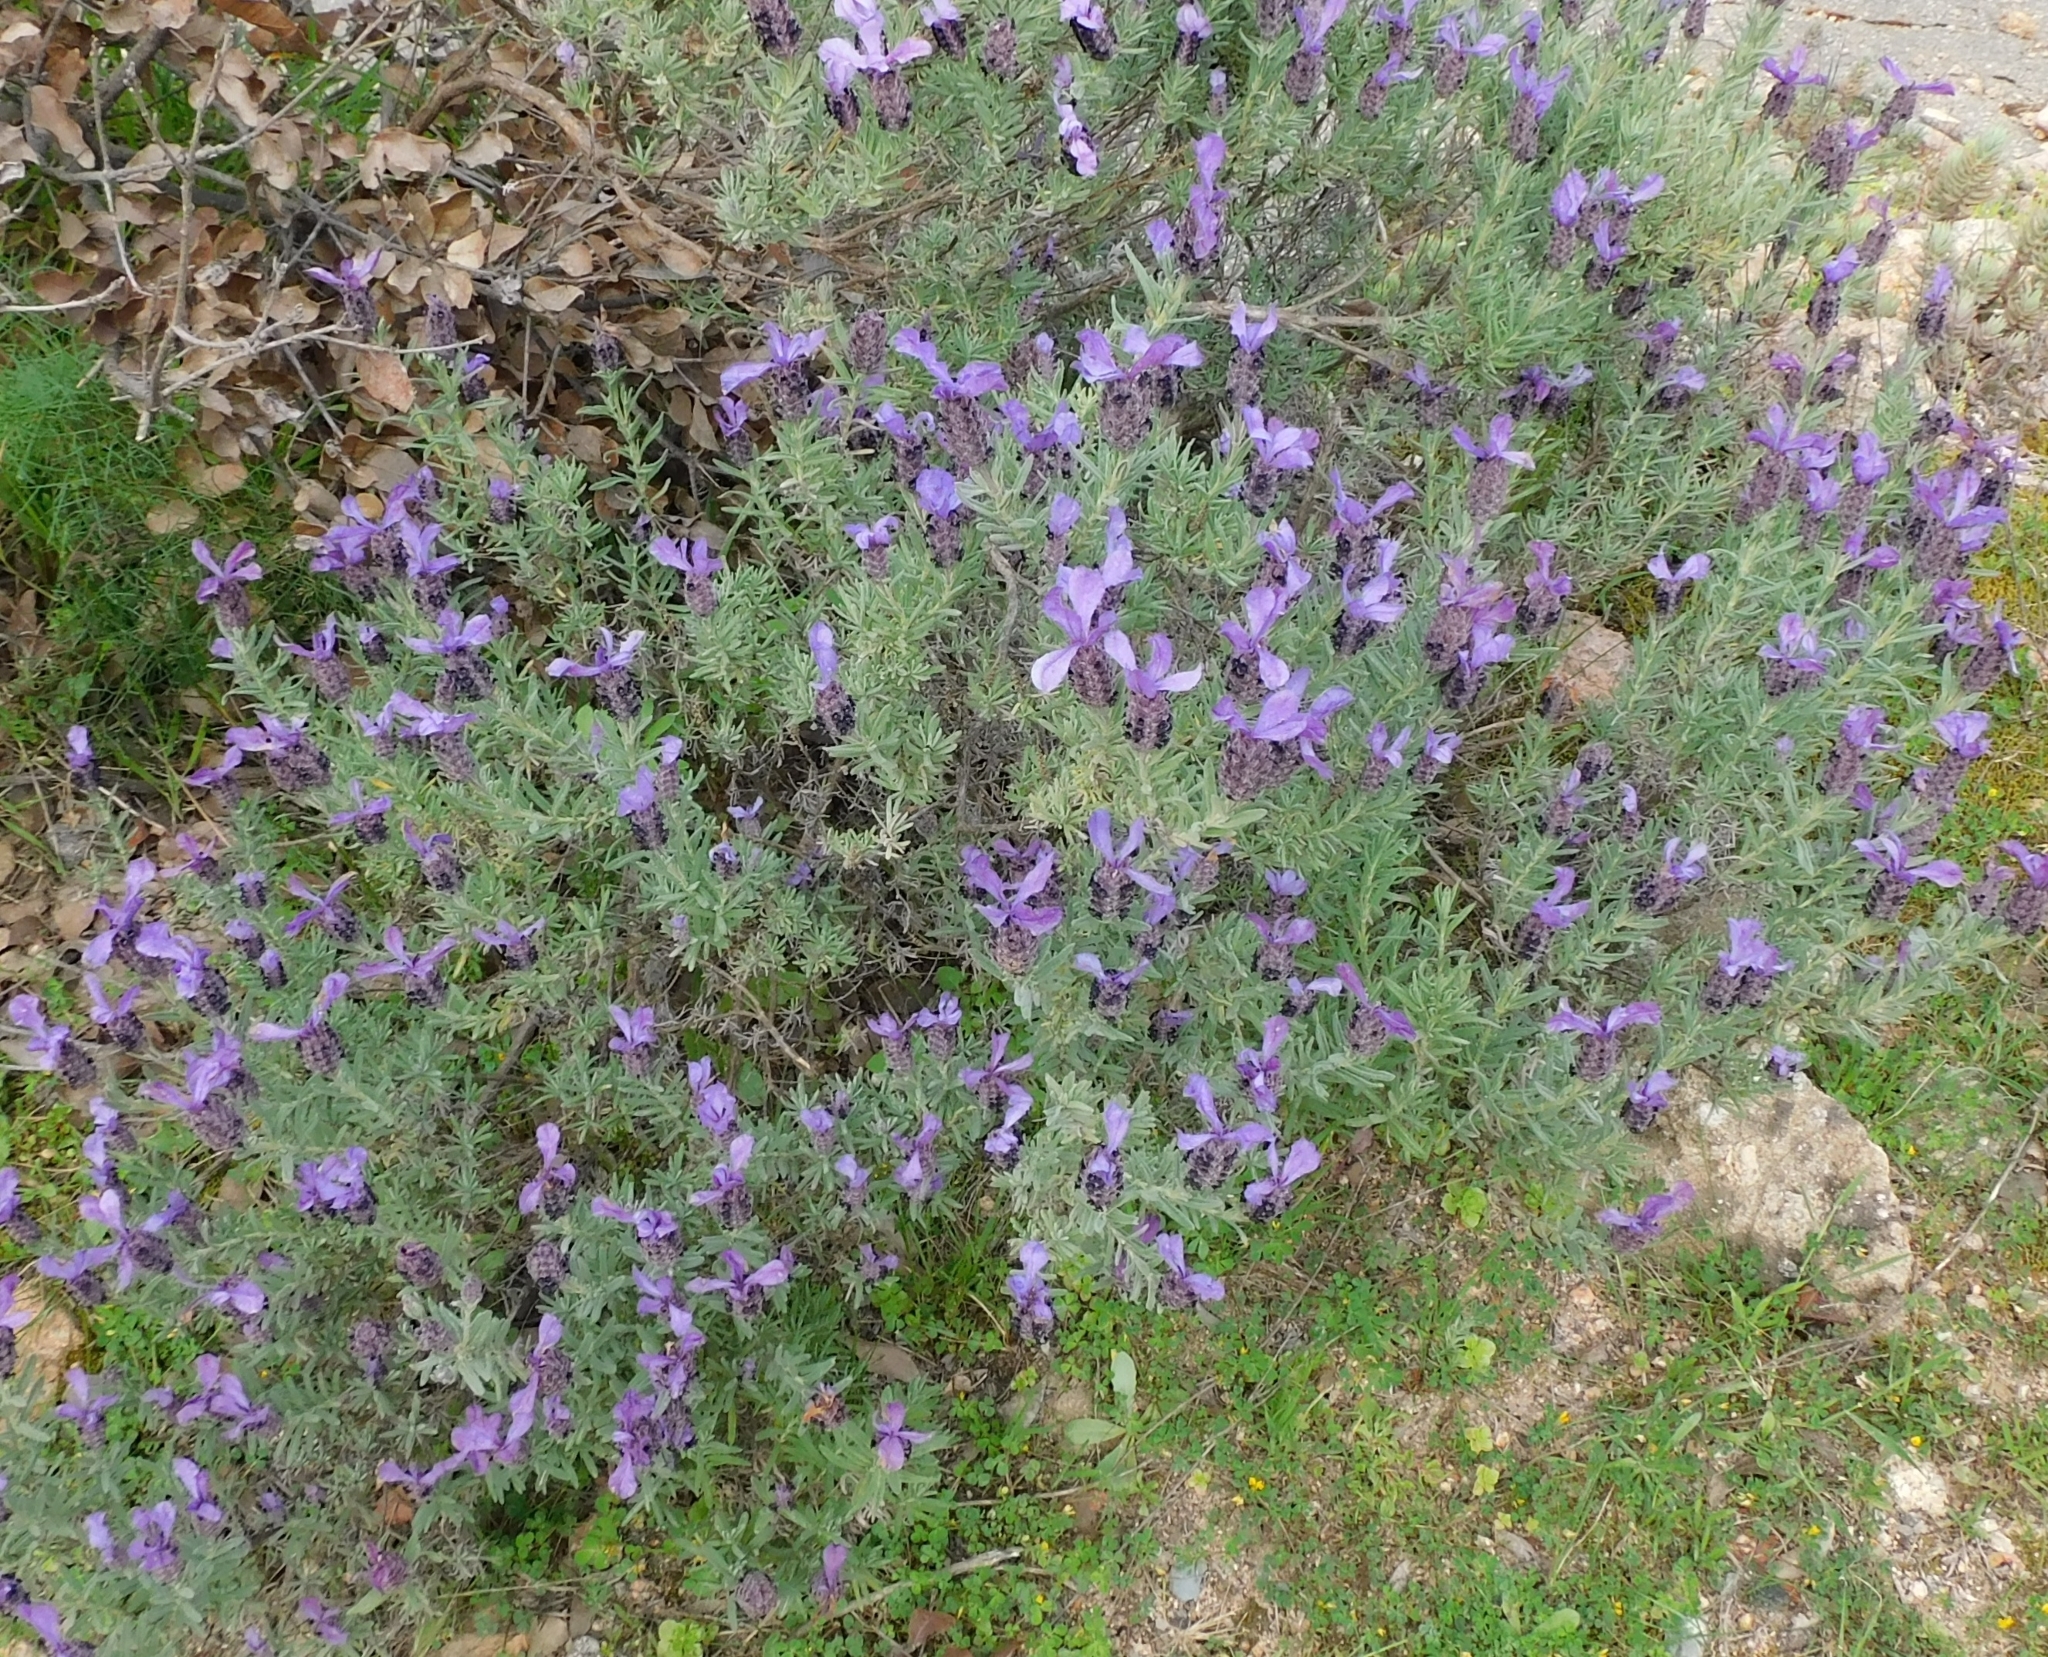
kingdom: Plantae
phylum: Tracheophyta
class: Magnoliopsida
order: Lamiales
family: Lamiaceae
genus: Lavandula
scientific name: Lavandula stoechas
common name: French lavender
